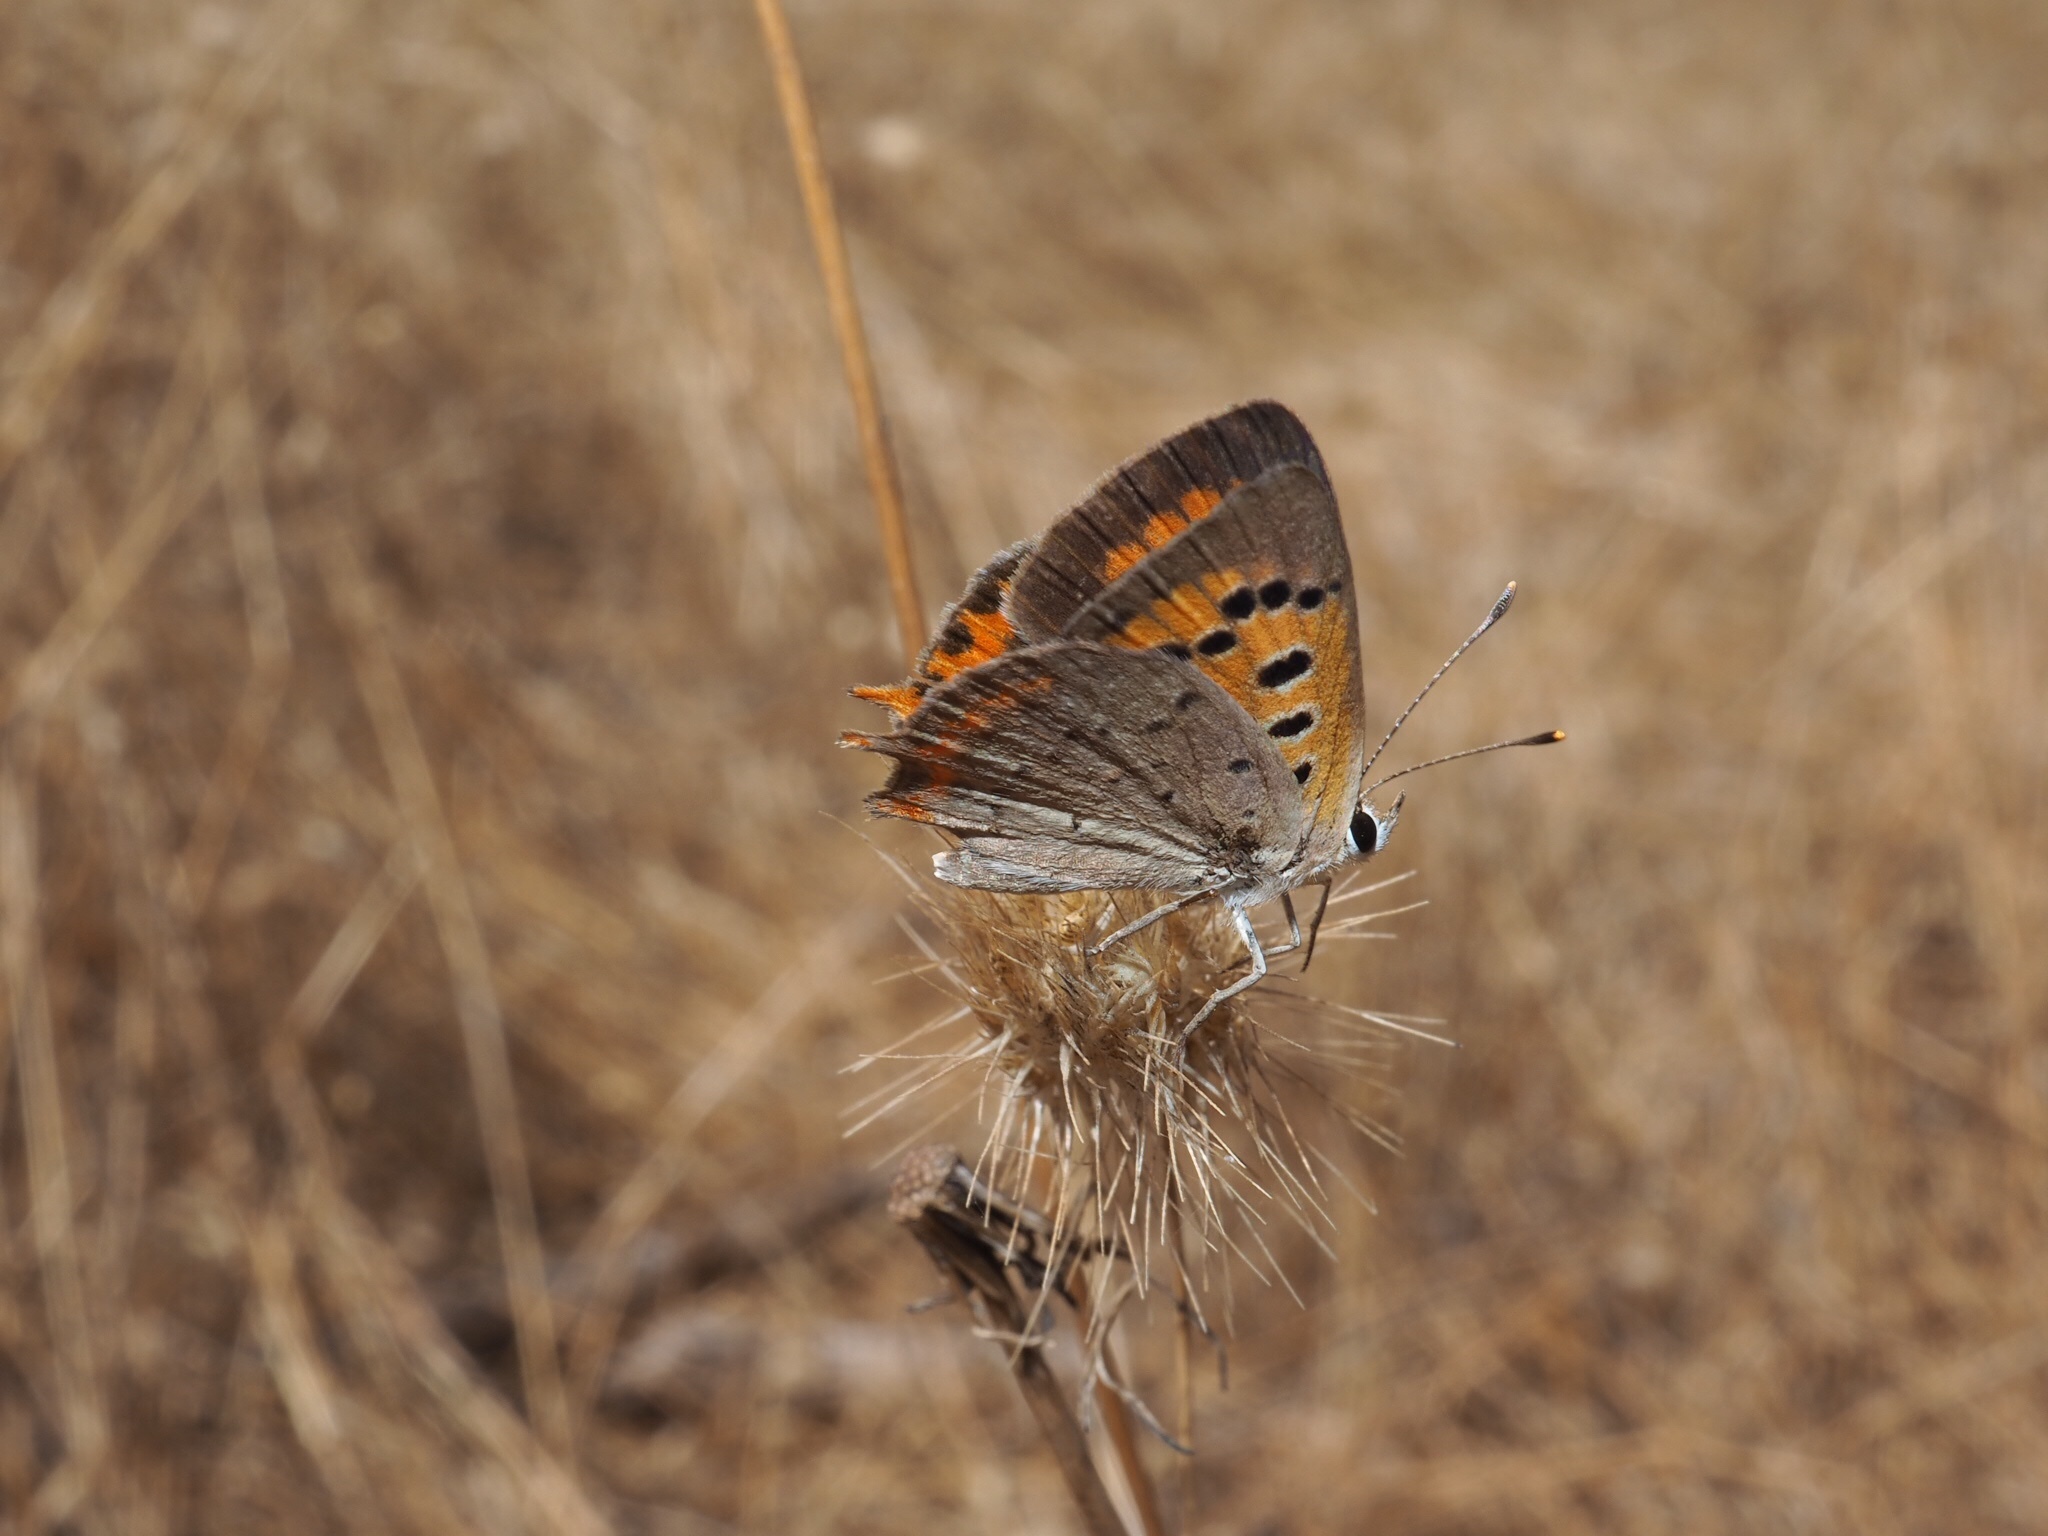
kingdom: Animalia
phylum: Arthropoda
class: Insecta
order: Lepidoptera
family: Lycaenidae
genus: Lycaena
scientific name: Lycaena phlaeas
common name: Small copper
